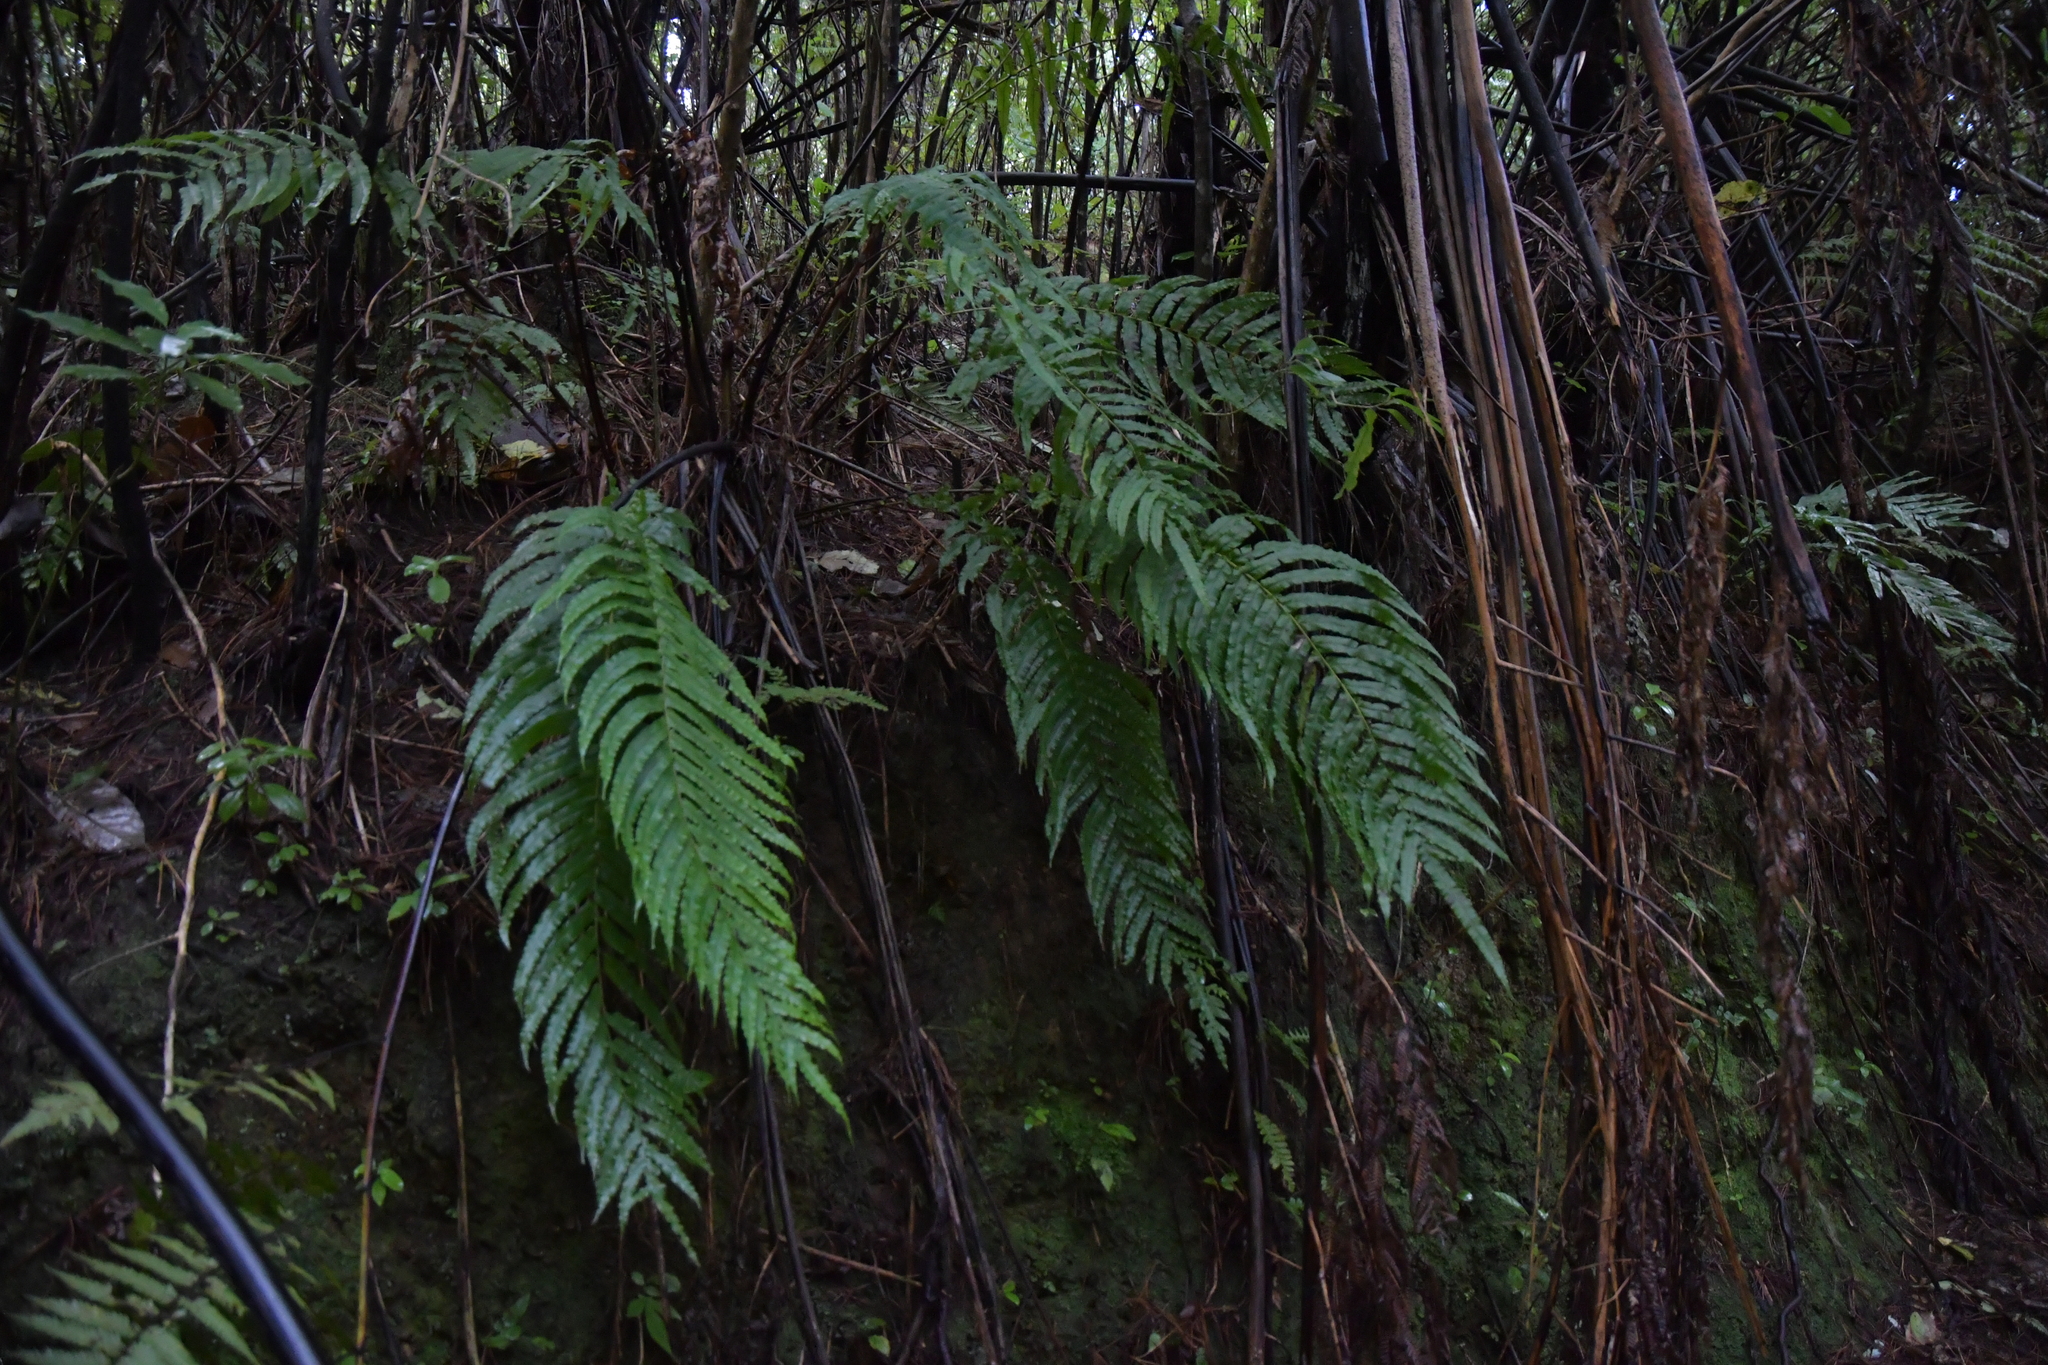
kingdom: Plantae
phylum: Tracheophyta
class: Polypodiopsida
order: Polypodiales
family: Blechnaceae
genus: Parablechnum
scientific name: Parablechnum novae-zelandiae
